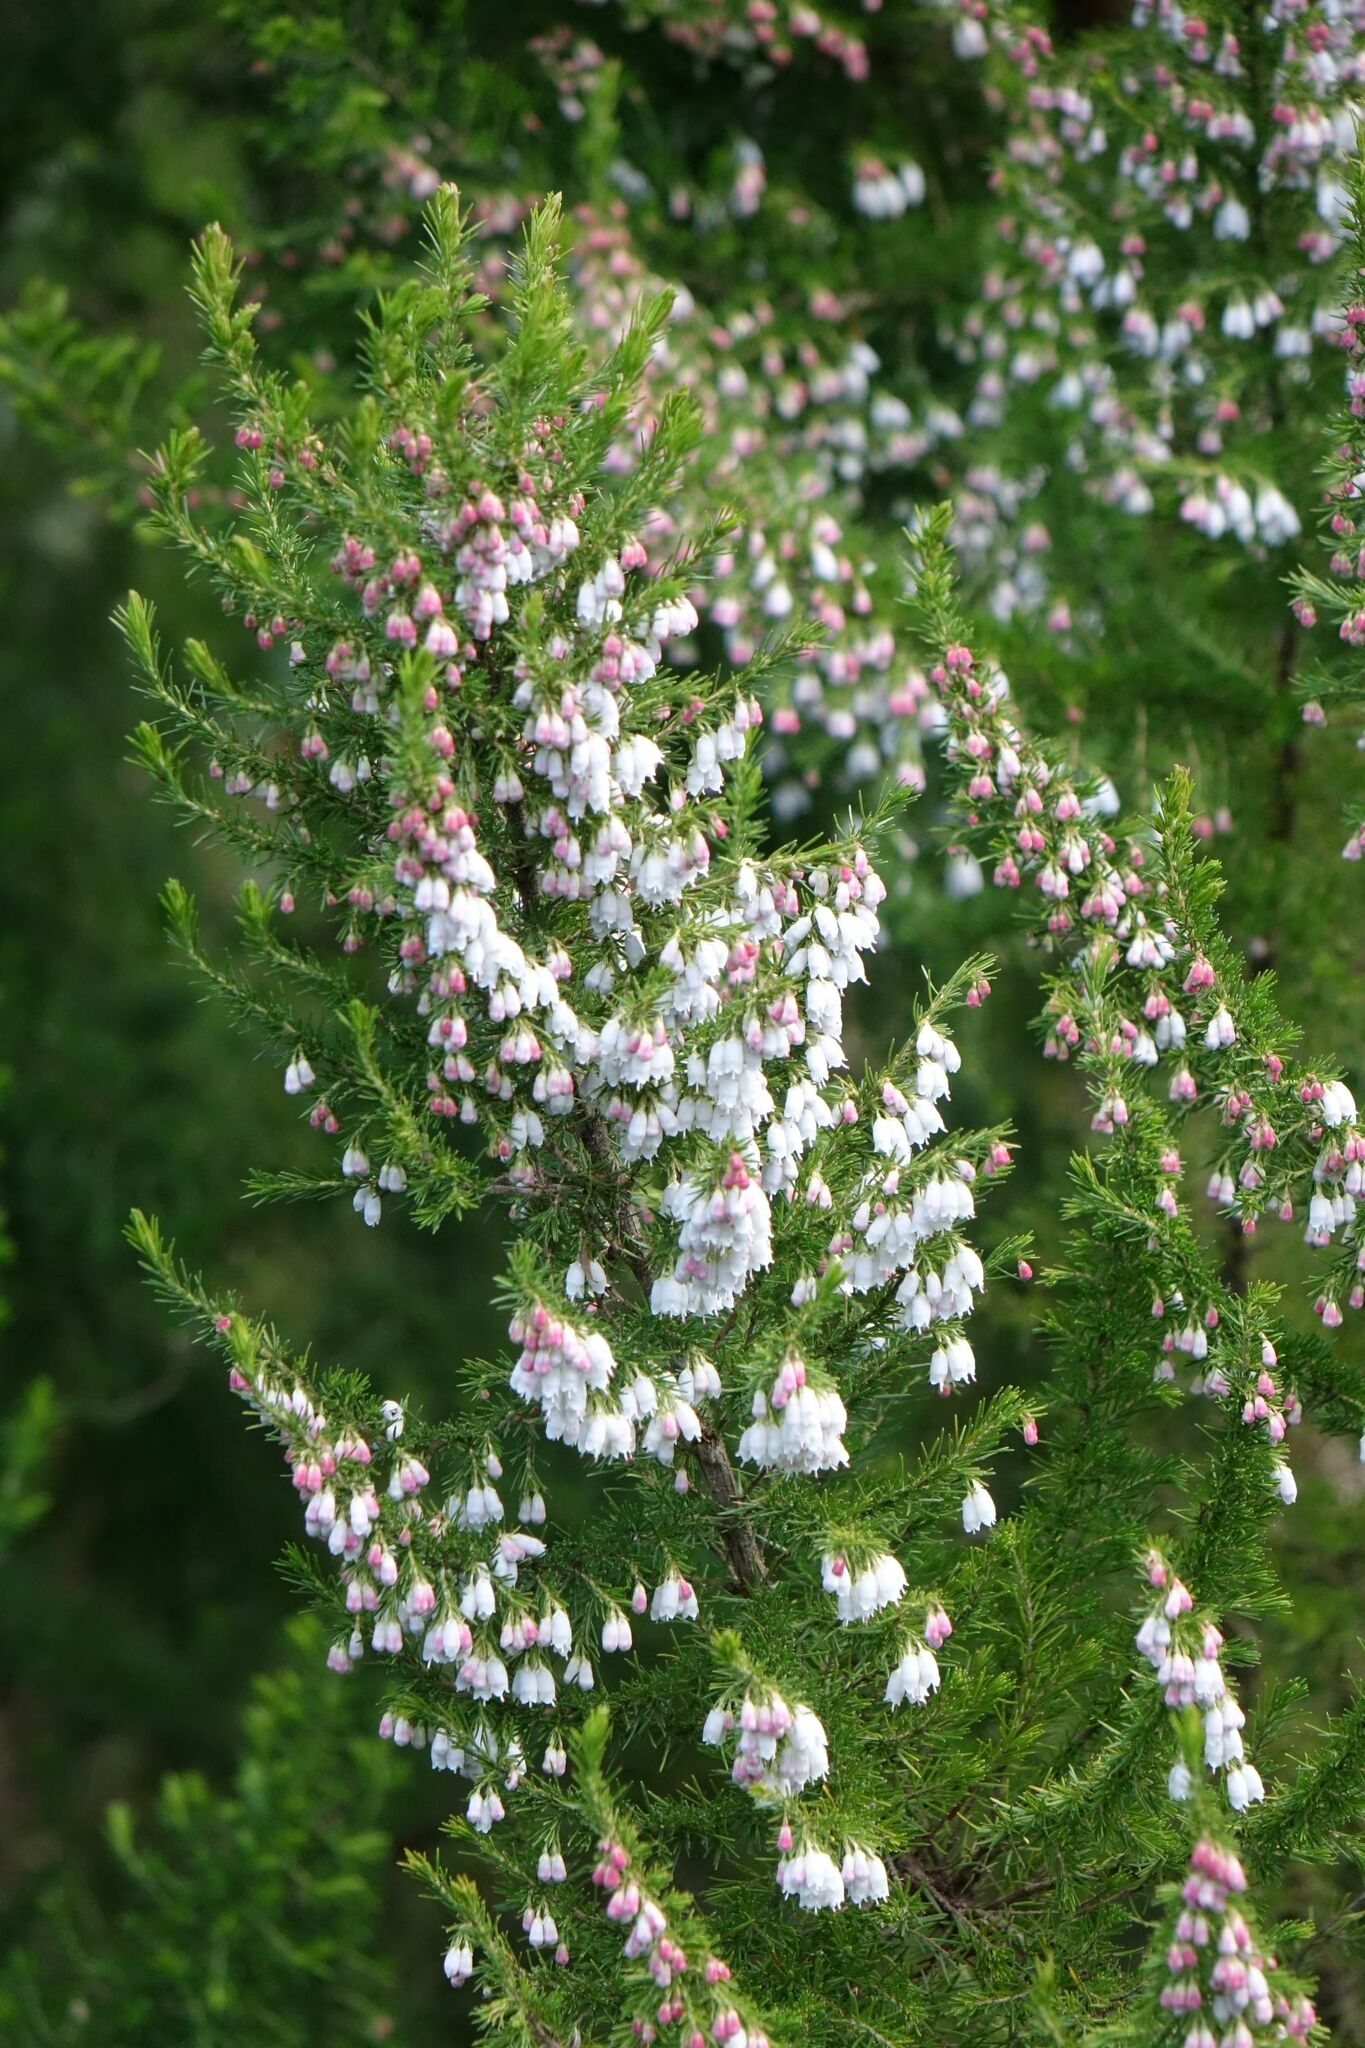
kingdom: Plantae
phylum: Tracheophyta
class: Magnoliopsida
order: Ericales
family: Ericaceae
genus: Erica
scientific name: Erica lusitanica
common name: Spanish heath
